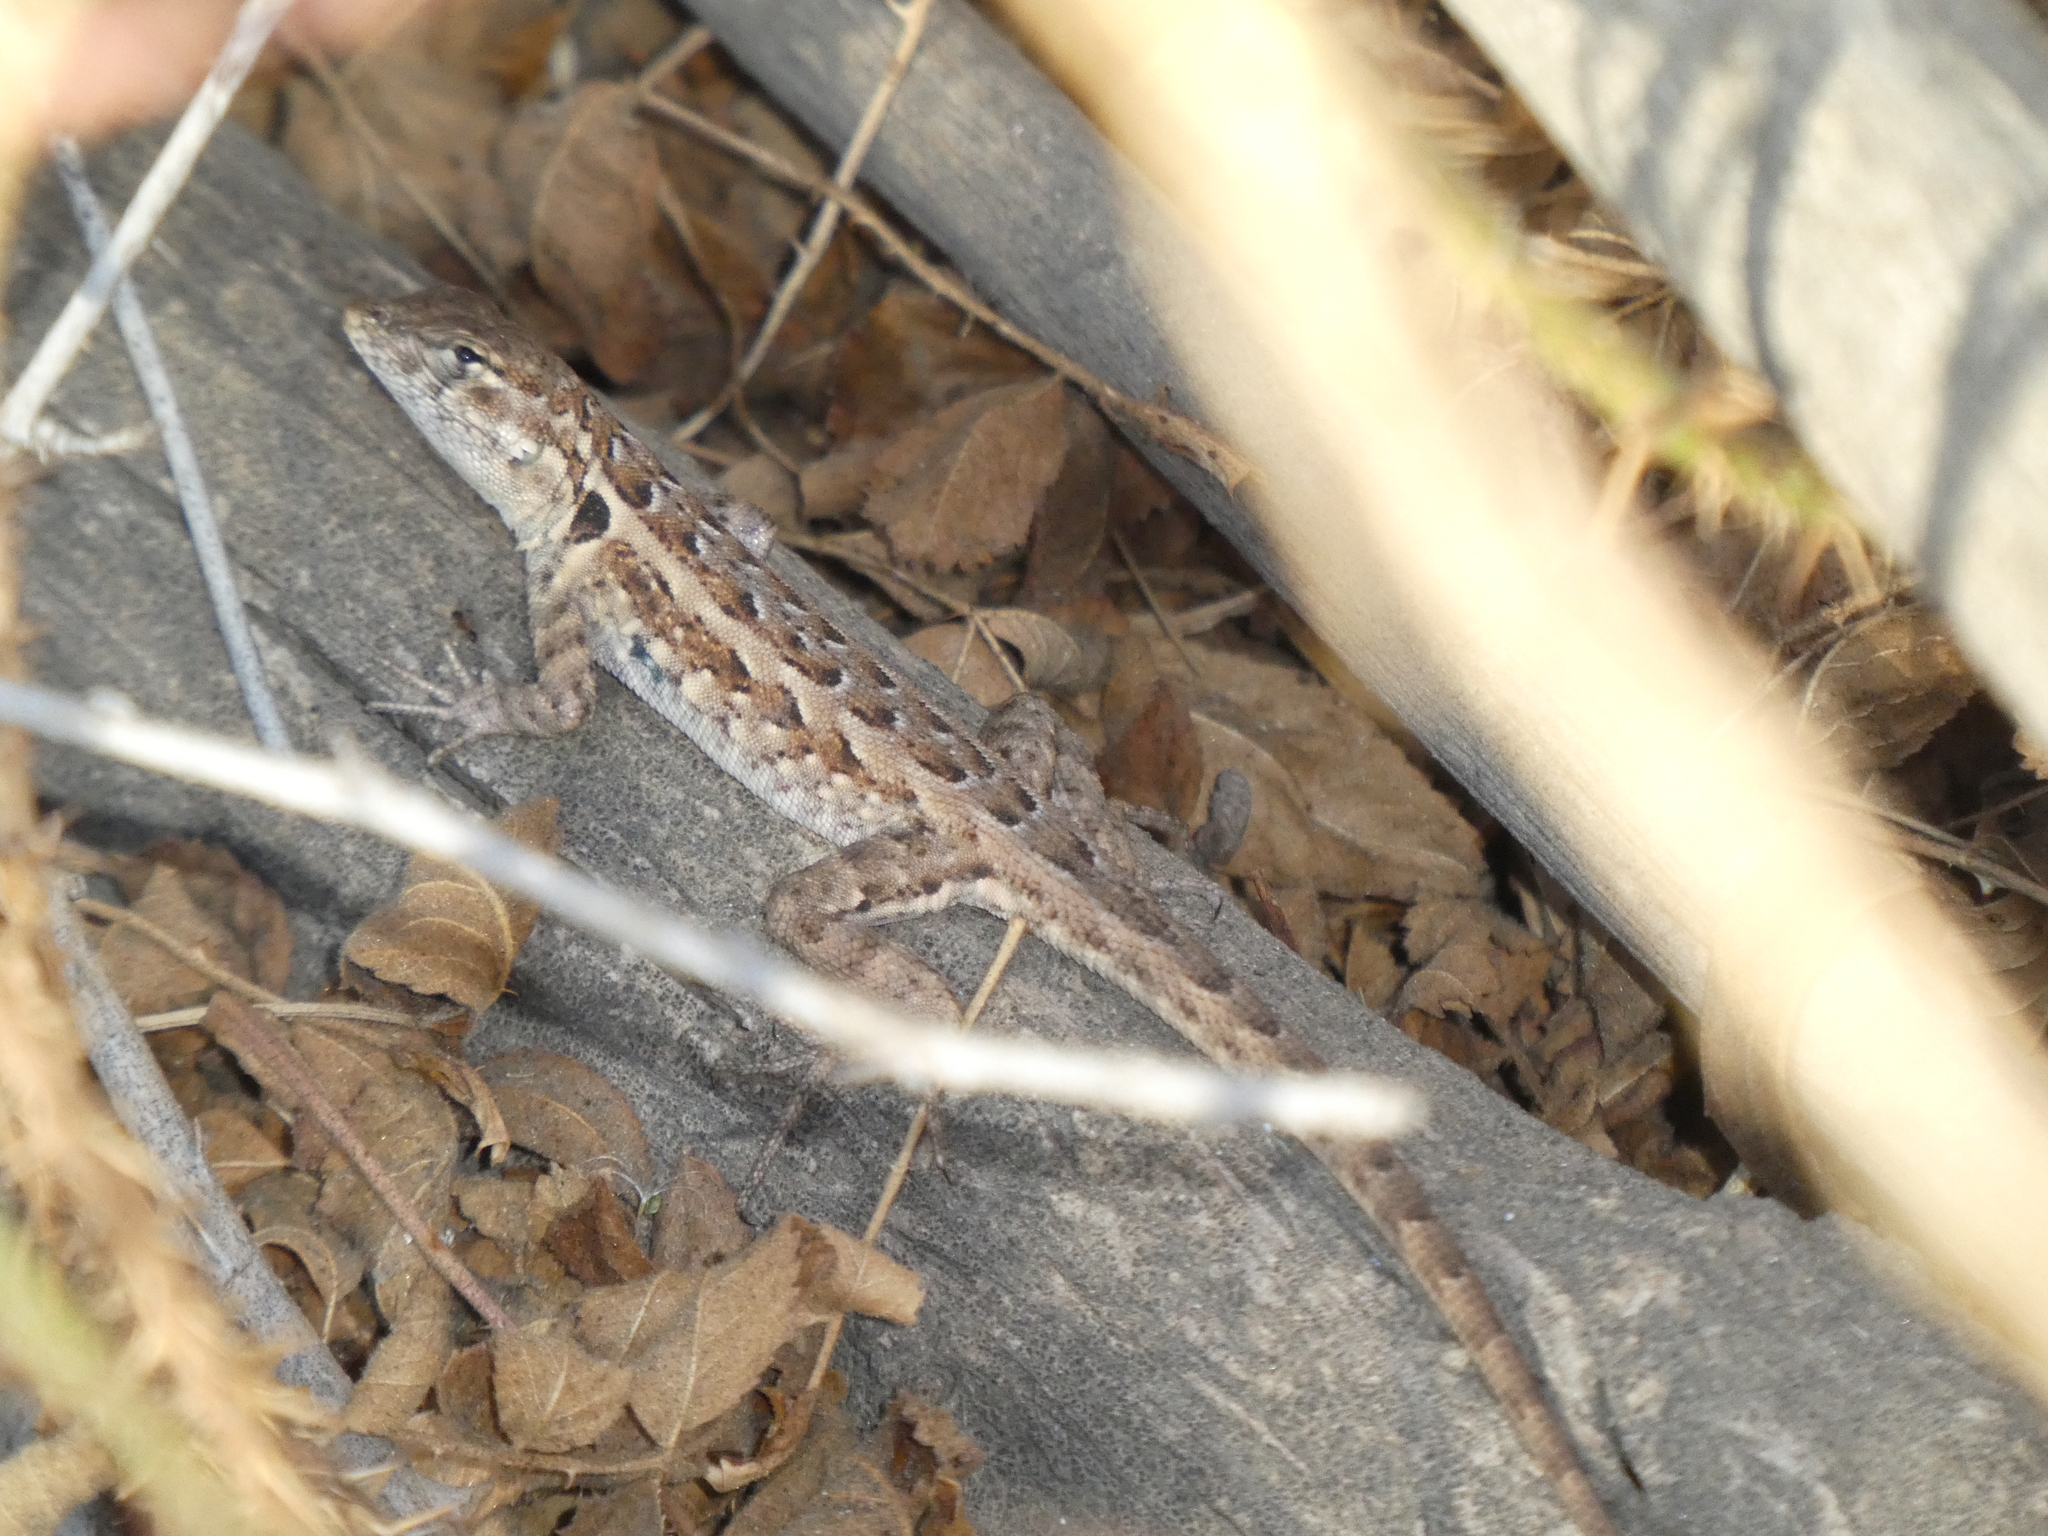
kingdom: Animalia
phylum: Chordata
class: Squamata
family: Phrynosomatidae
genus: Uta
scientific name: Uta stansburiana
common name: Side-blotched lizard
